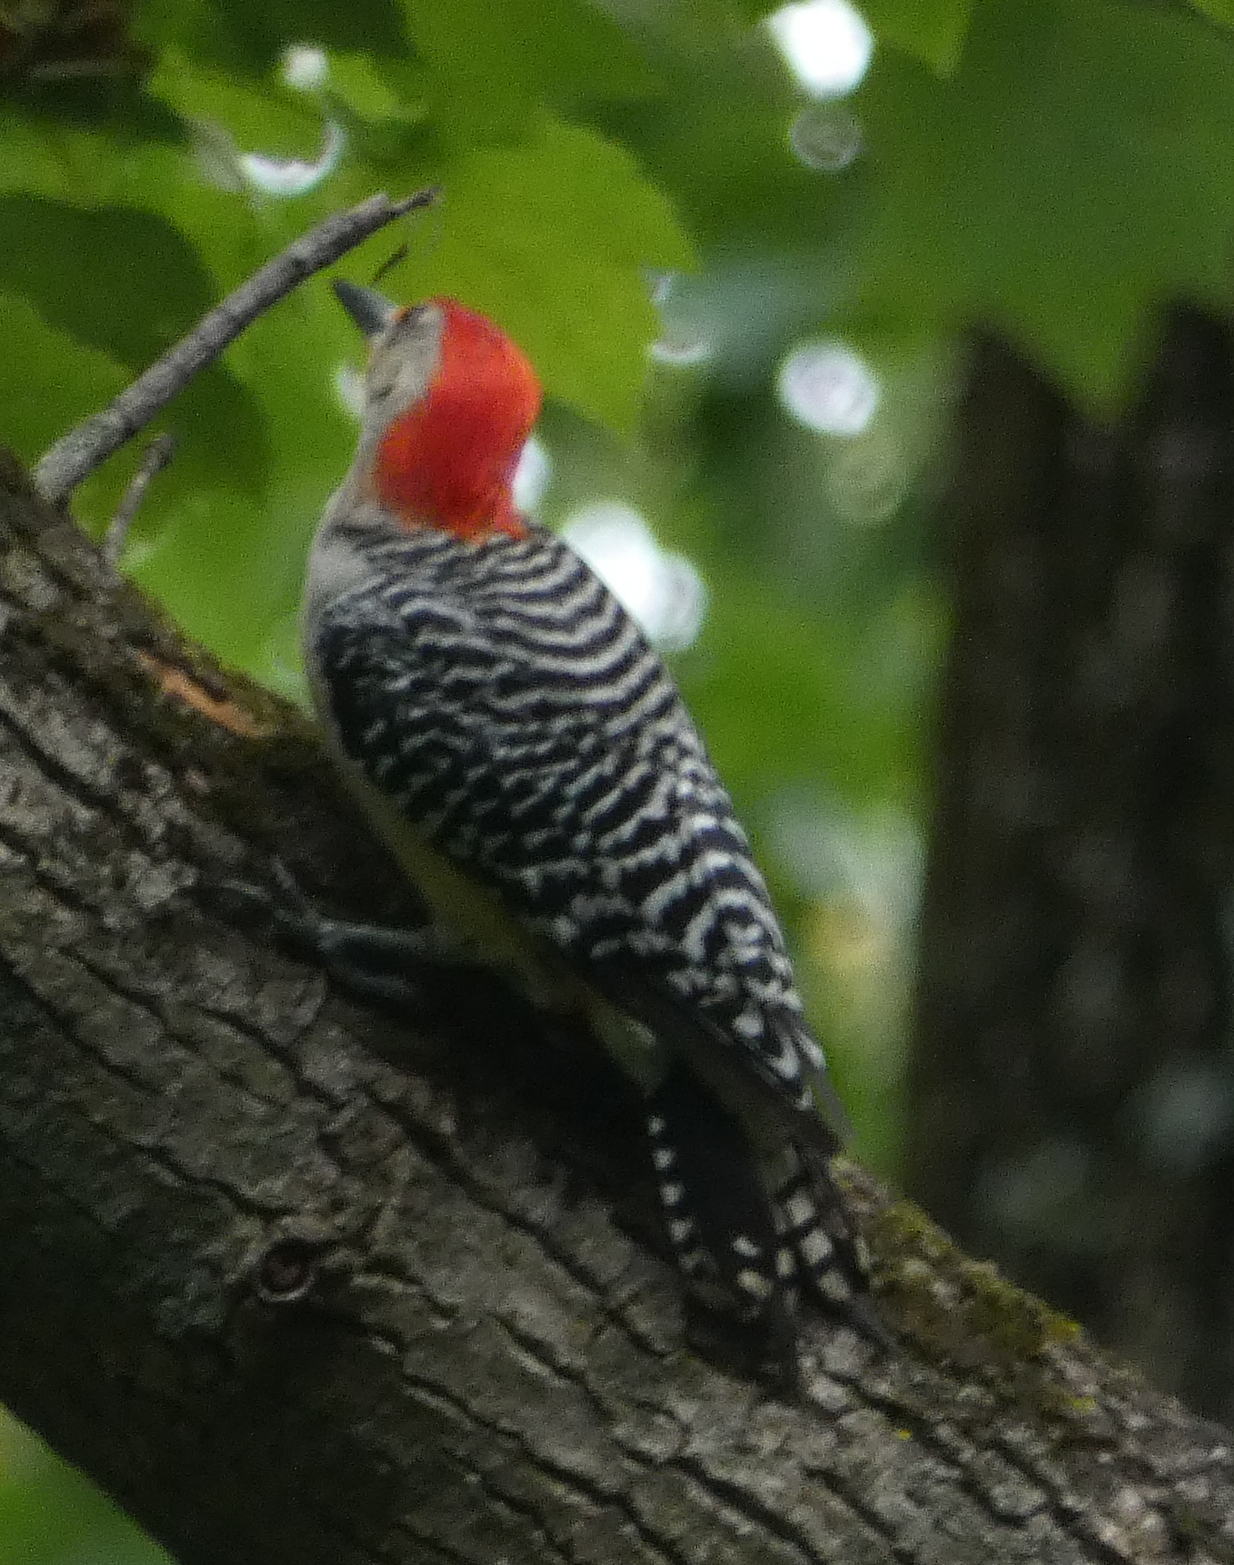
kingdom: Animalia
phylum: Chordata
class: Aves
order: Piciformes
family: Picidae
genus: Melanerpes
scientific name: Melanerpes carolinus
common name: Red-bellied woodpecker
